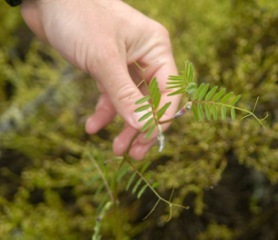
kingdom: Plantae
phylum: Tracheophyta
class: Magnoliopsida
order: Fabales
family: Fabaceae
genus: Vicia
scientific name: Vicia sativa
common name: Garden vetch
